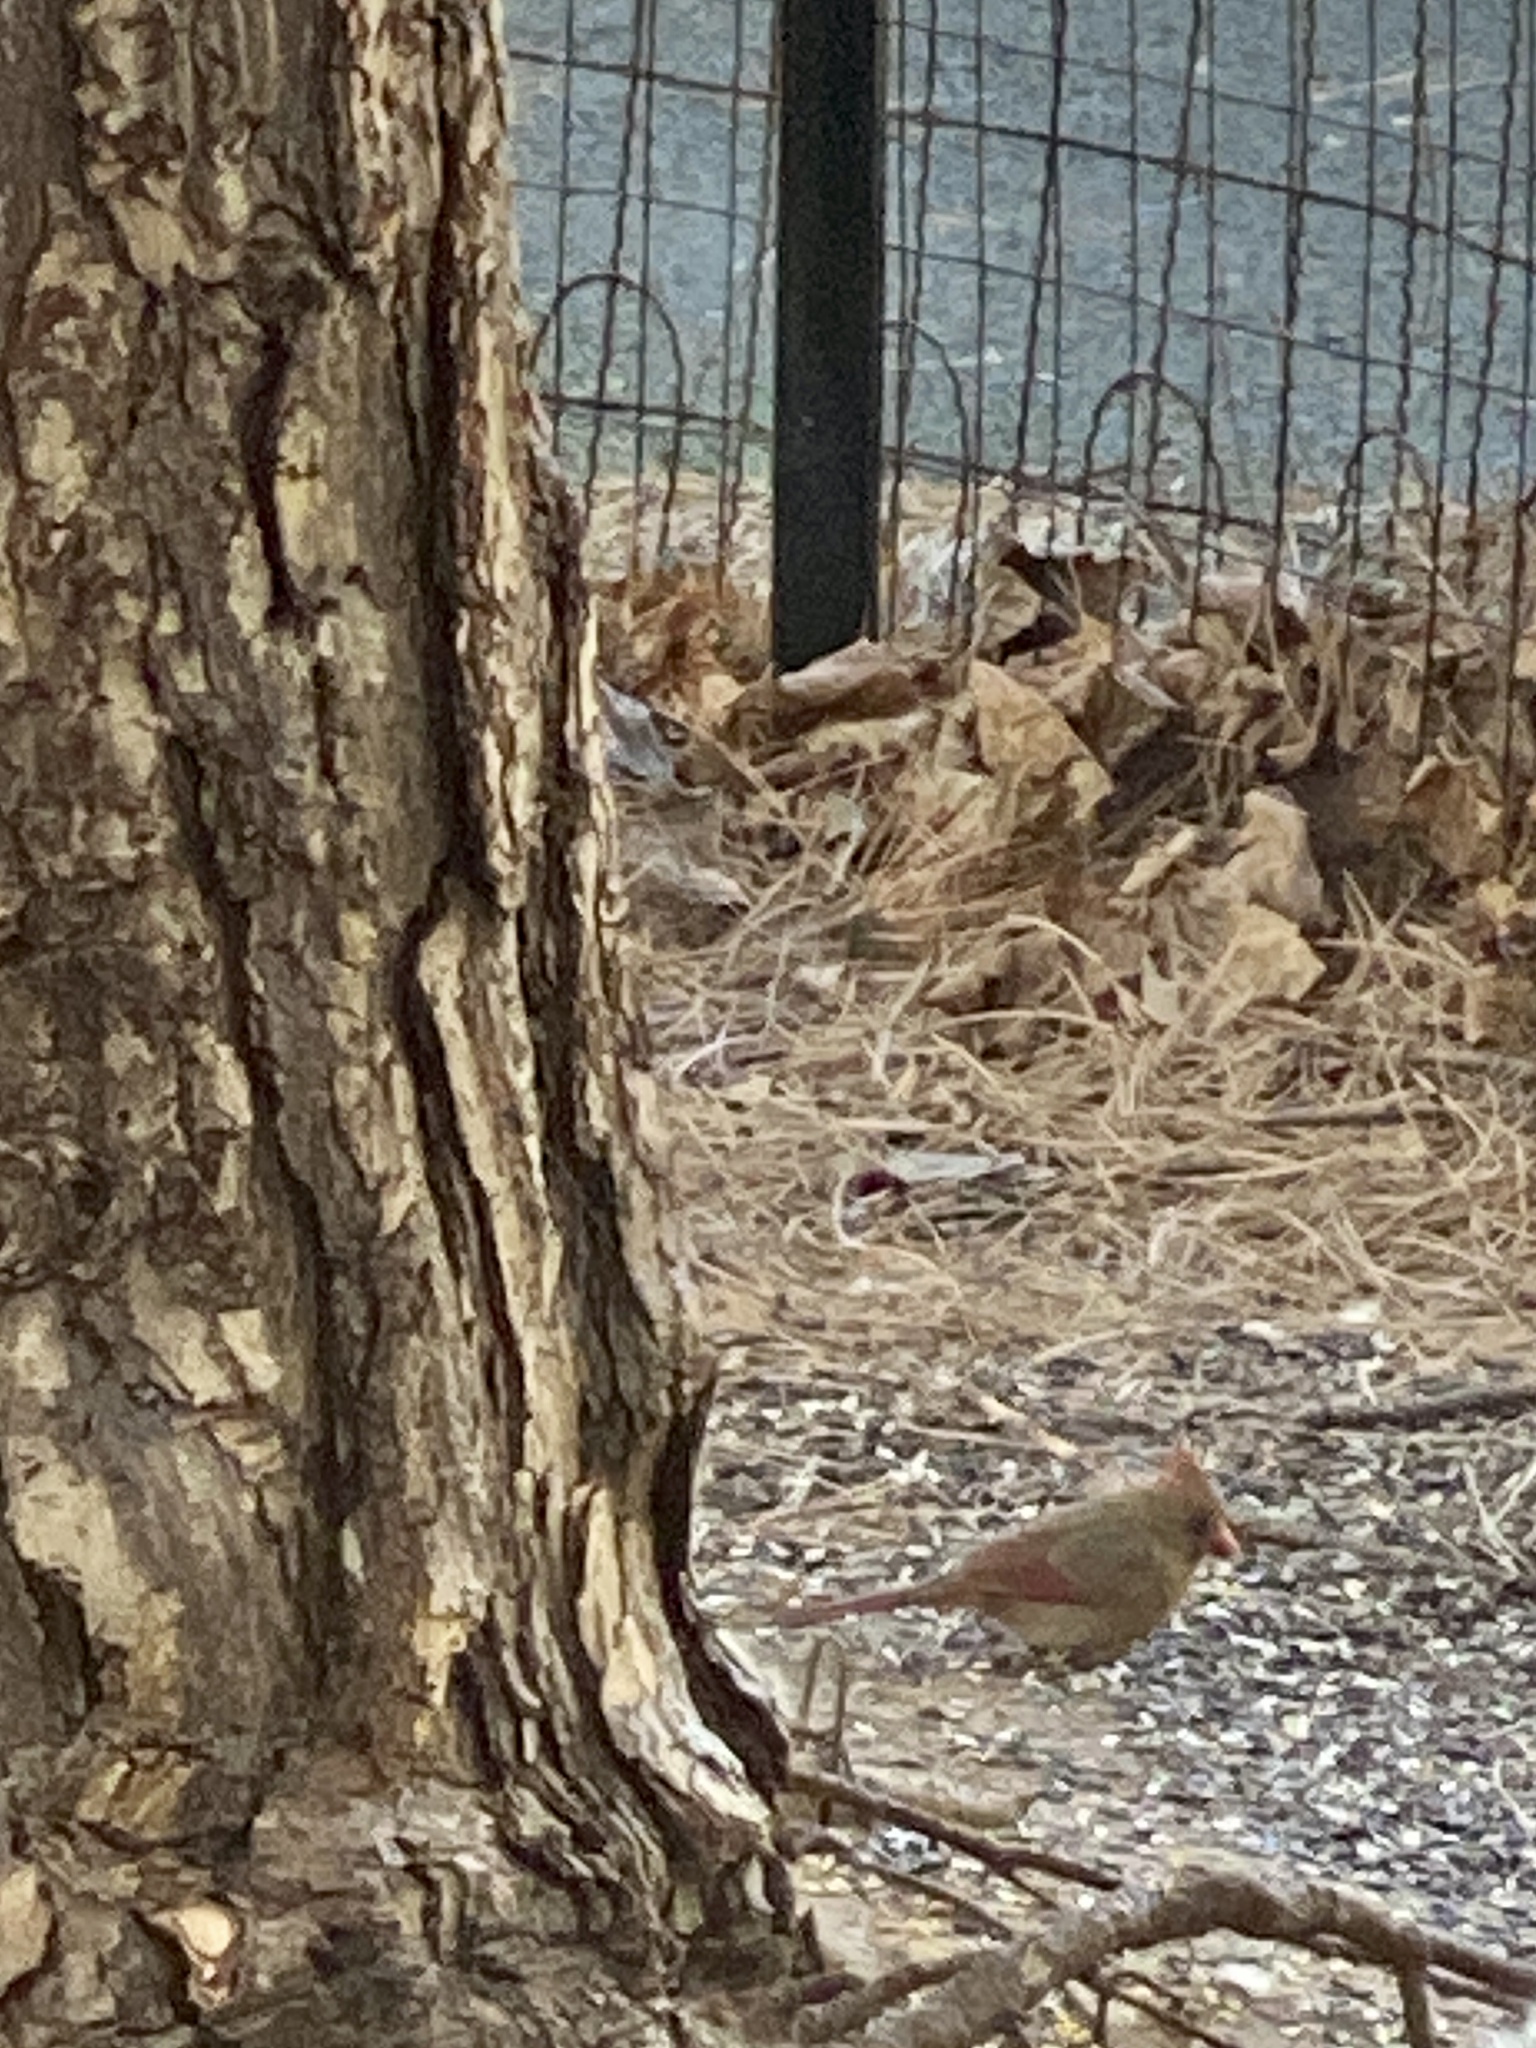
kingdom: Animalia
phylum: Chordata
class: Aves
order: Passeriformes
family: Cardinalidae
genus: Cardinalis
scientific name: Cardinalis cardinalis
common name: Northern cardinal
